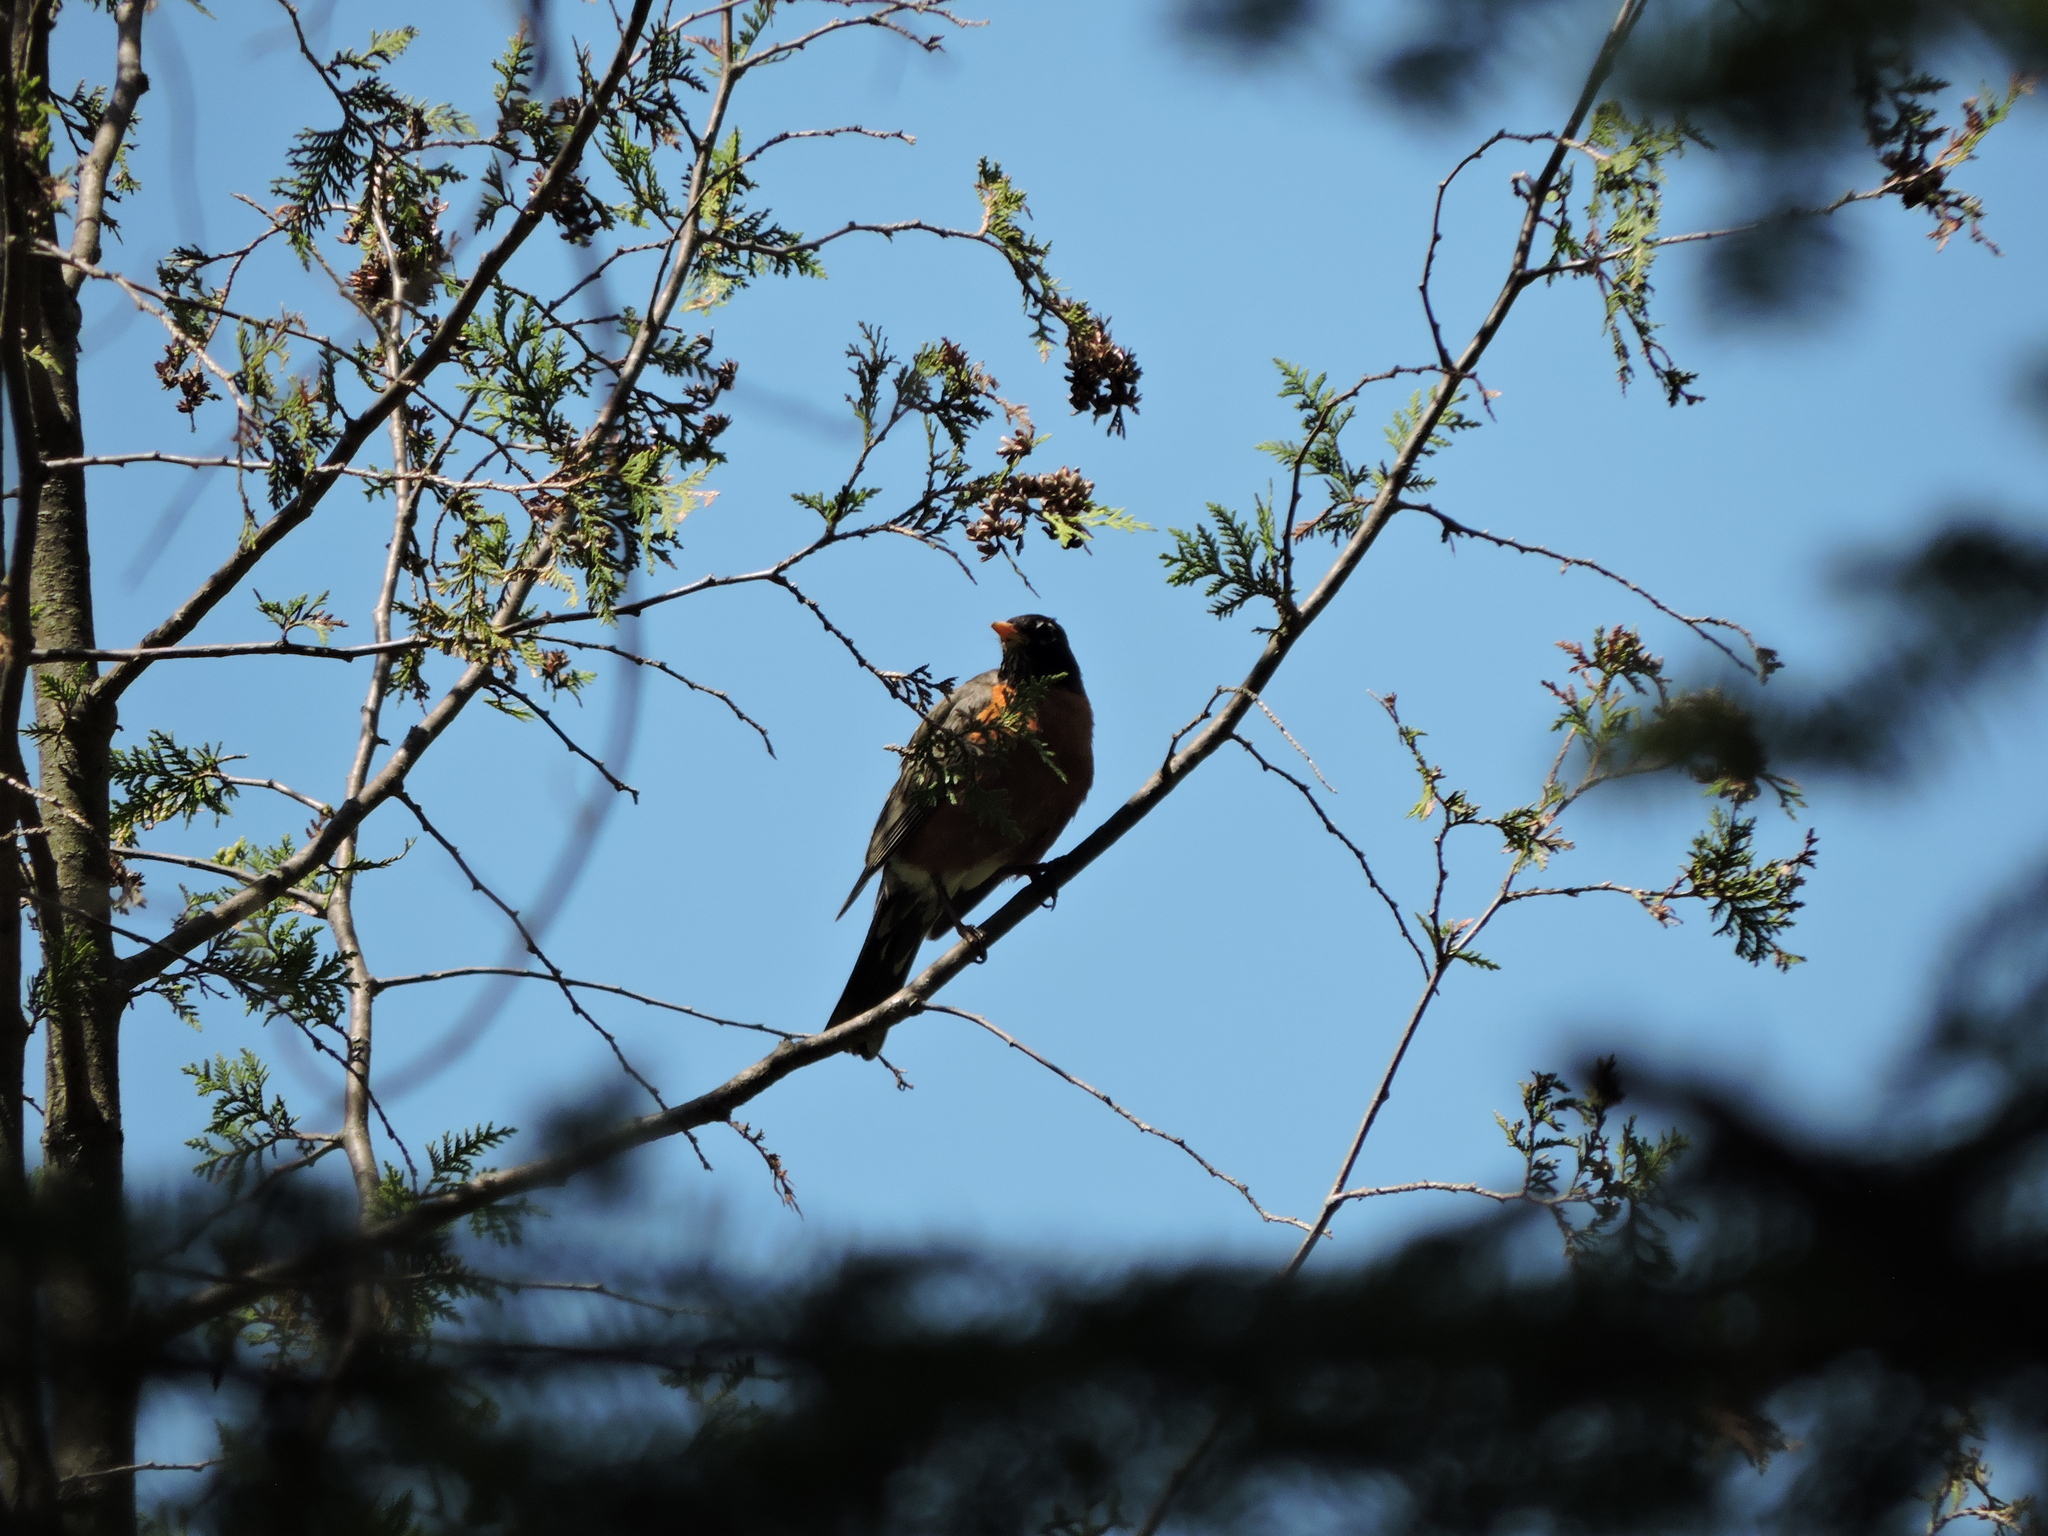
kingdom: Animalia
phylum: Chordata
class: Aves
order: Passeriformes
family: Turdidae
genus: Turdus
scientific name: Turdus migratorius
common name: American robin
